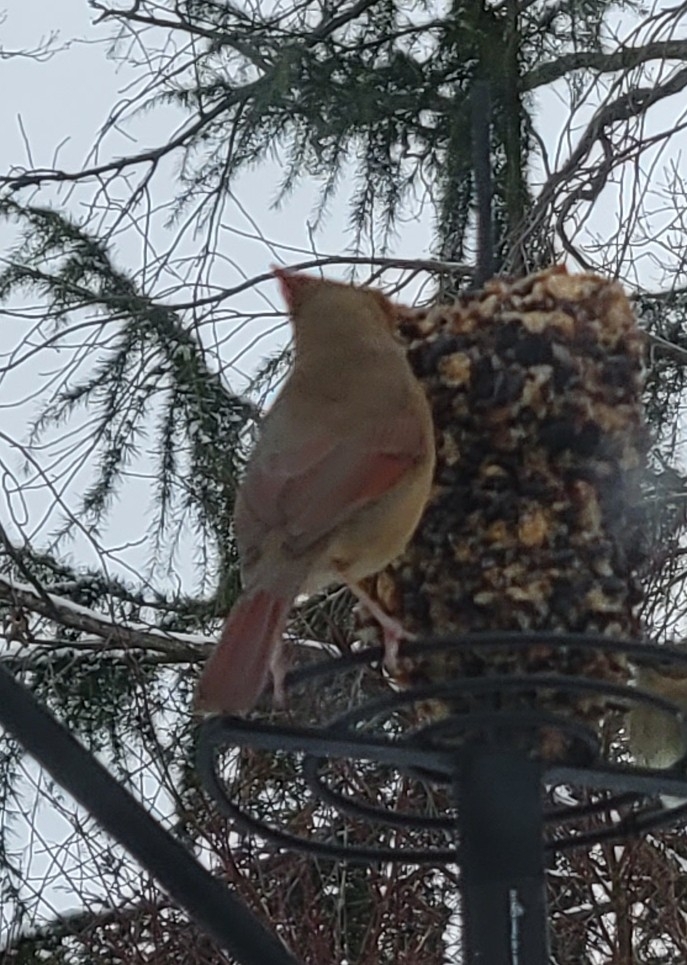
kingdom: Animalia
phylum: Chordata
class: Aves
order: Passeriformes
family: Cardinalidae
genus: Cardinalis
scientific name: Cardinalis cardinalis
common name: Northern cardinal
